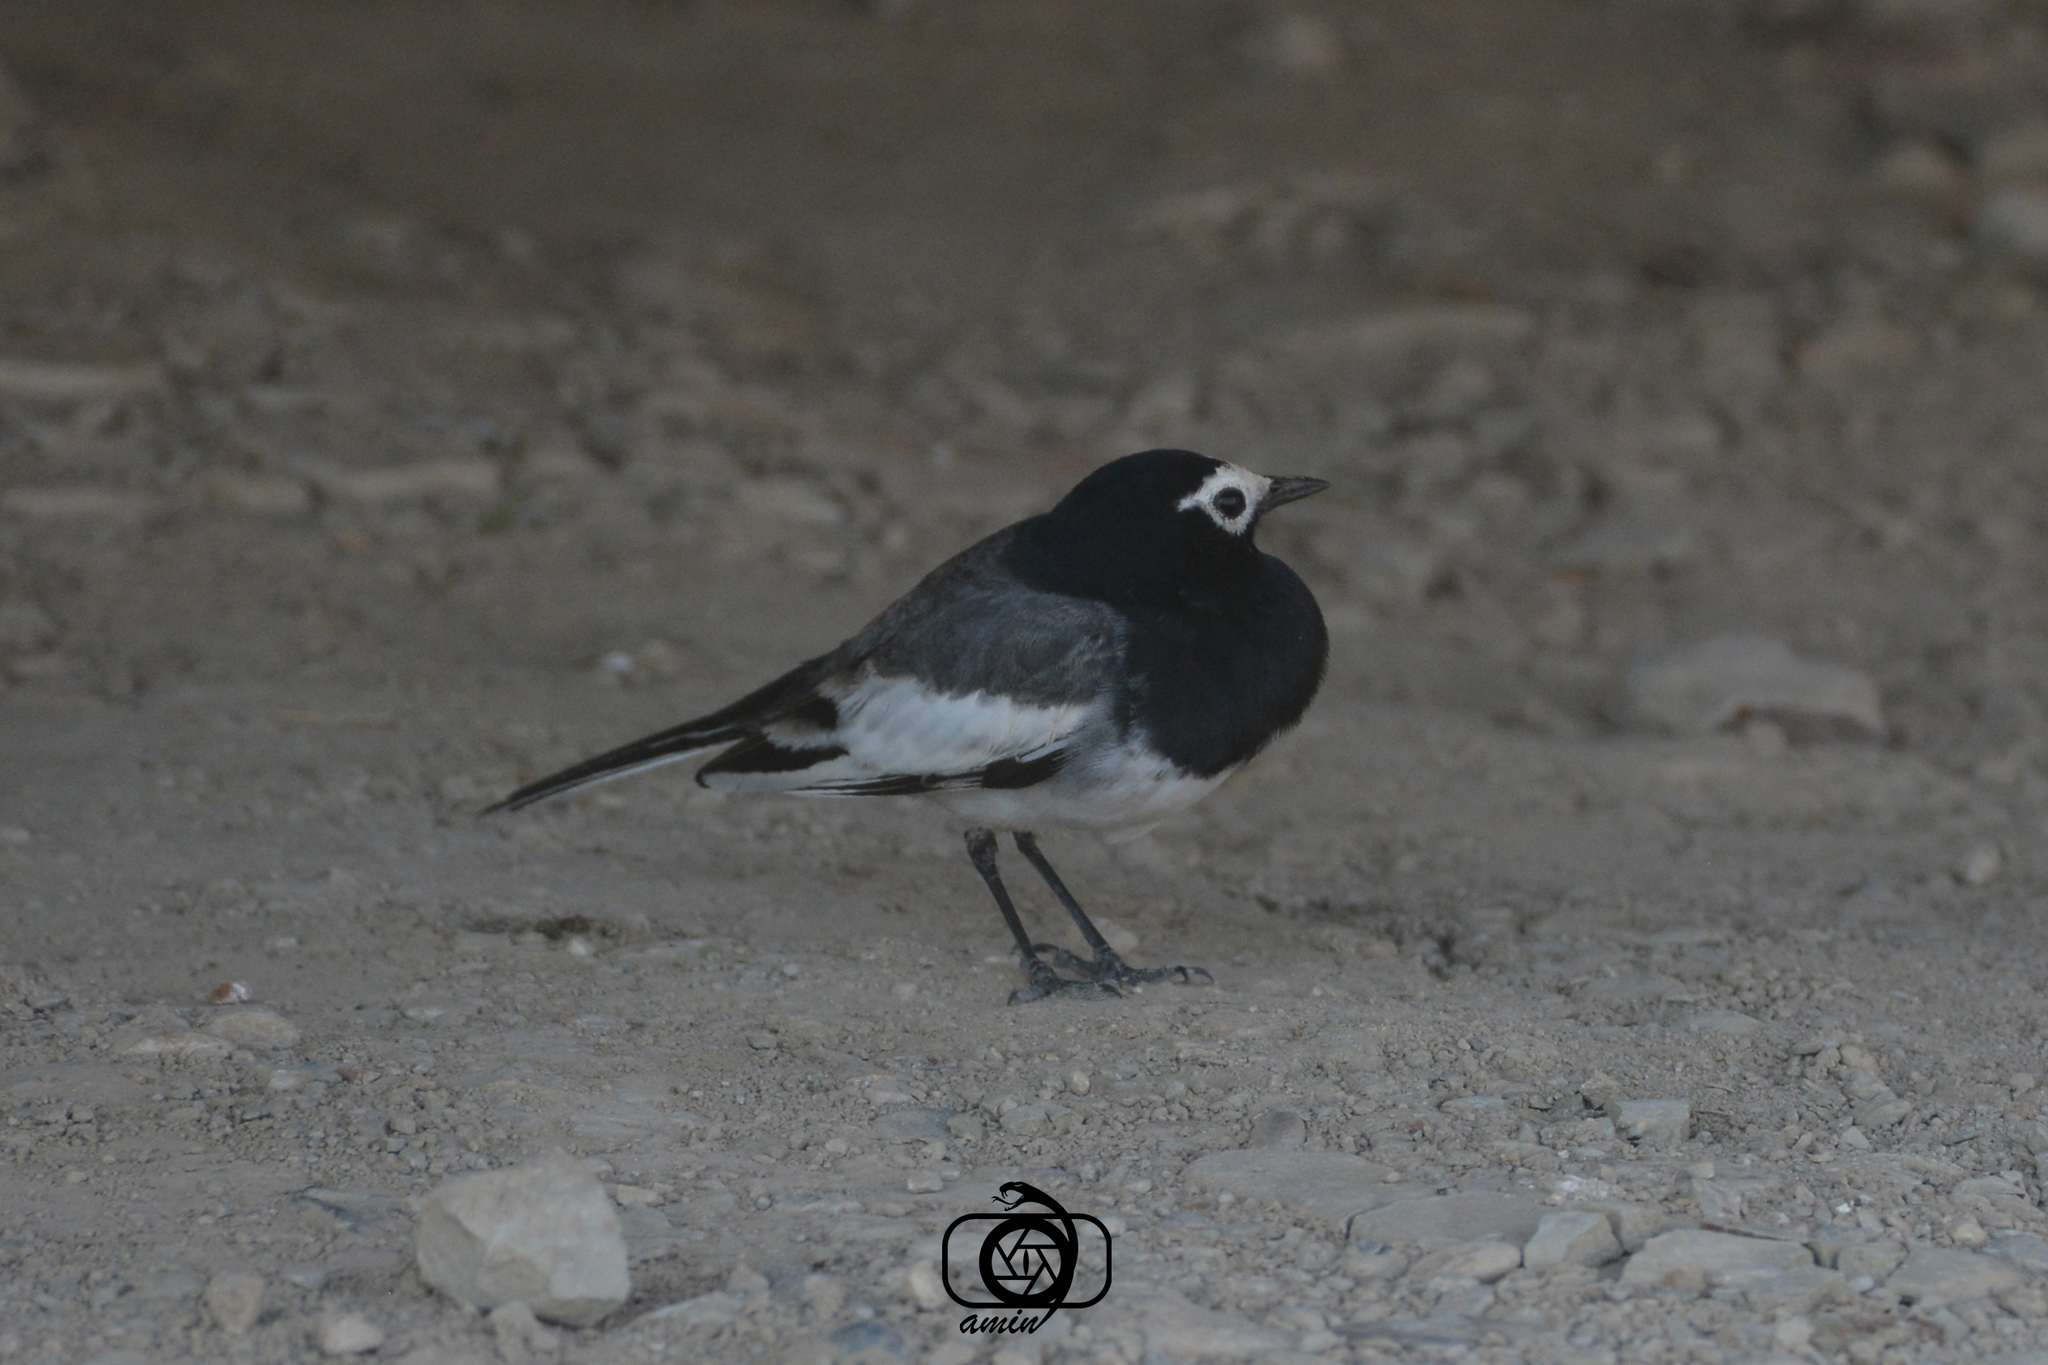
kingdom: Animalia
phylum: Chordata
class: Aves
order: Passeriformes
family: Motacillidae
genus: Motacilla
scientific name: Motacilla alba
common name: White wagtail
